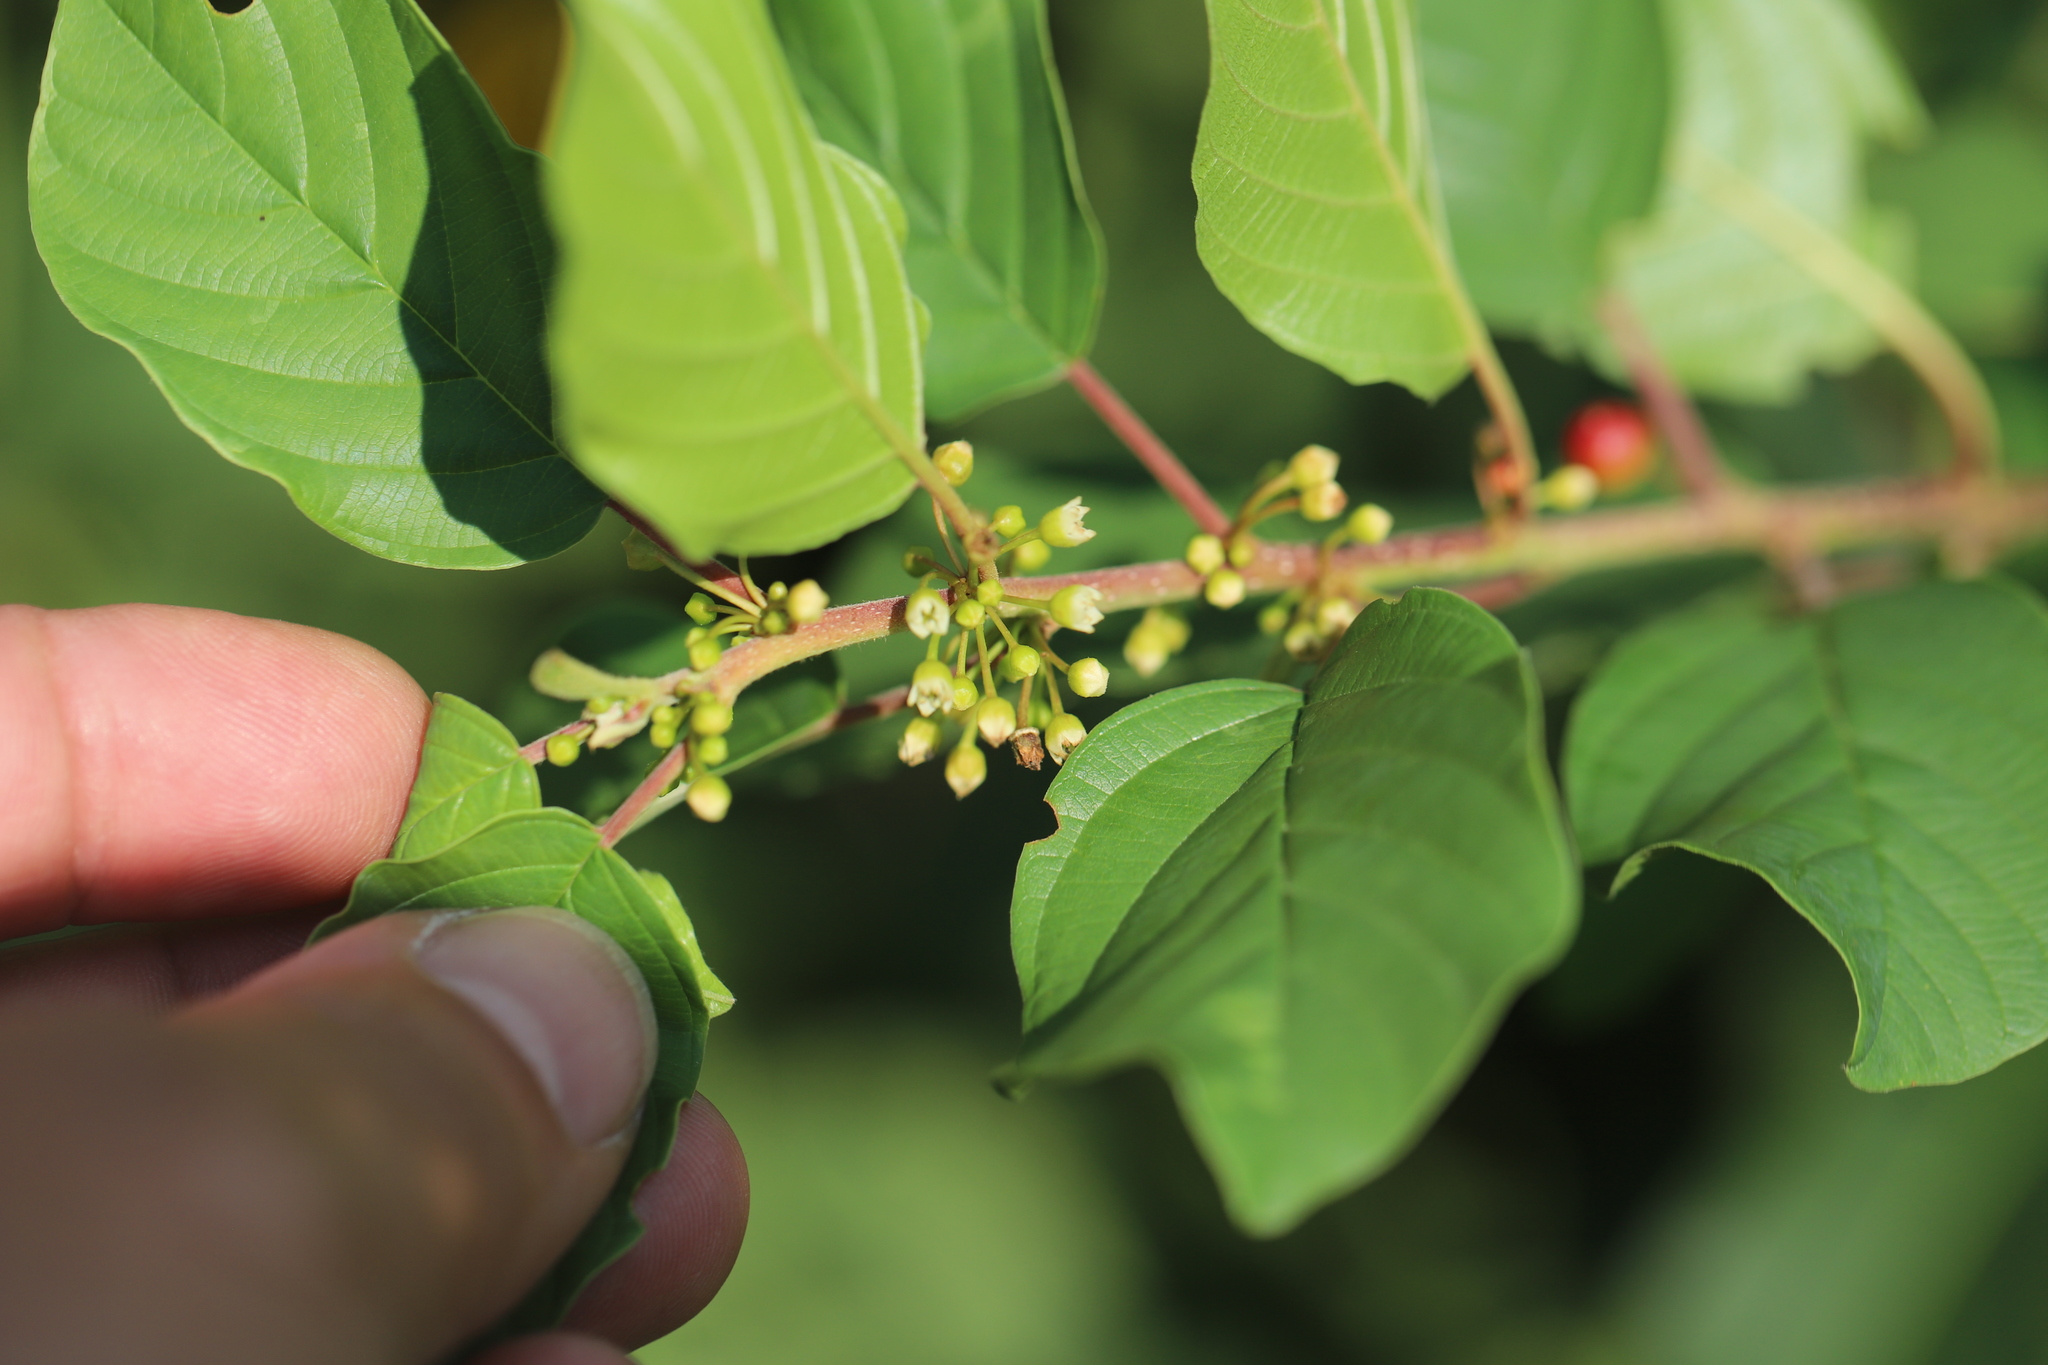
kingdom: Plantae
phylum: Tracheophyta
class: Magnoliopsida
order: Rosales
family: Rhamnaceae
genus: Frangula
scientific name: Frangula alnus
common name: Alder buckthorn
